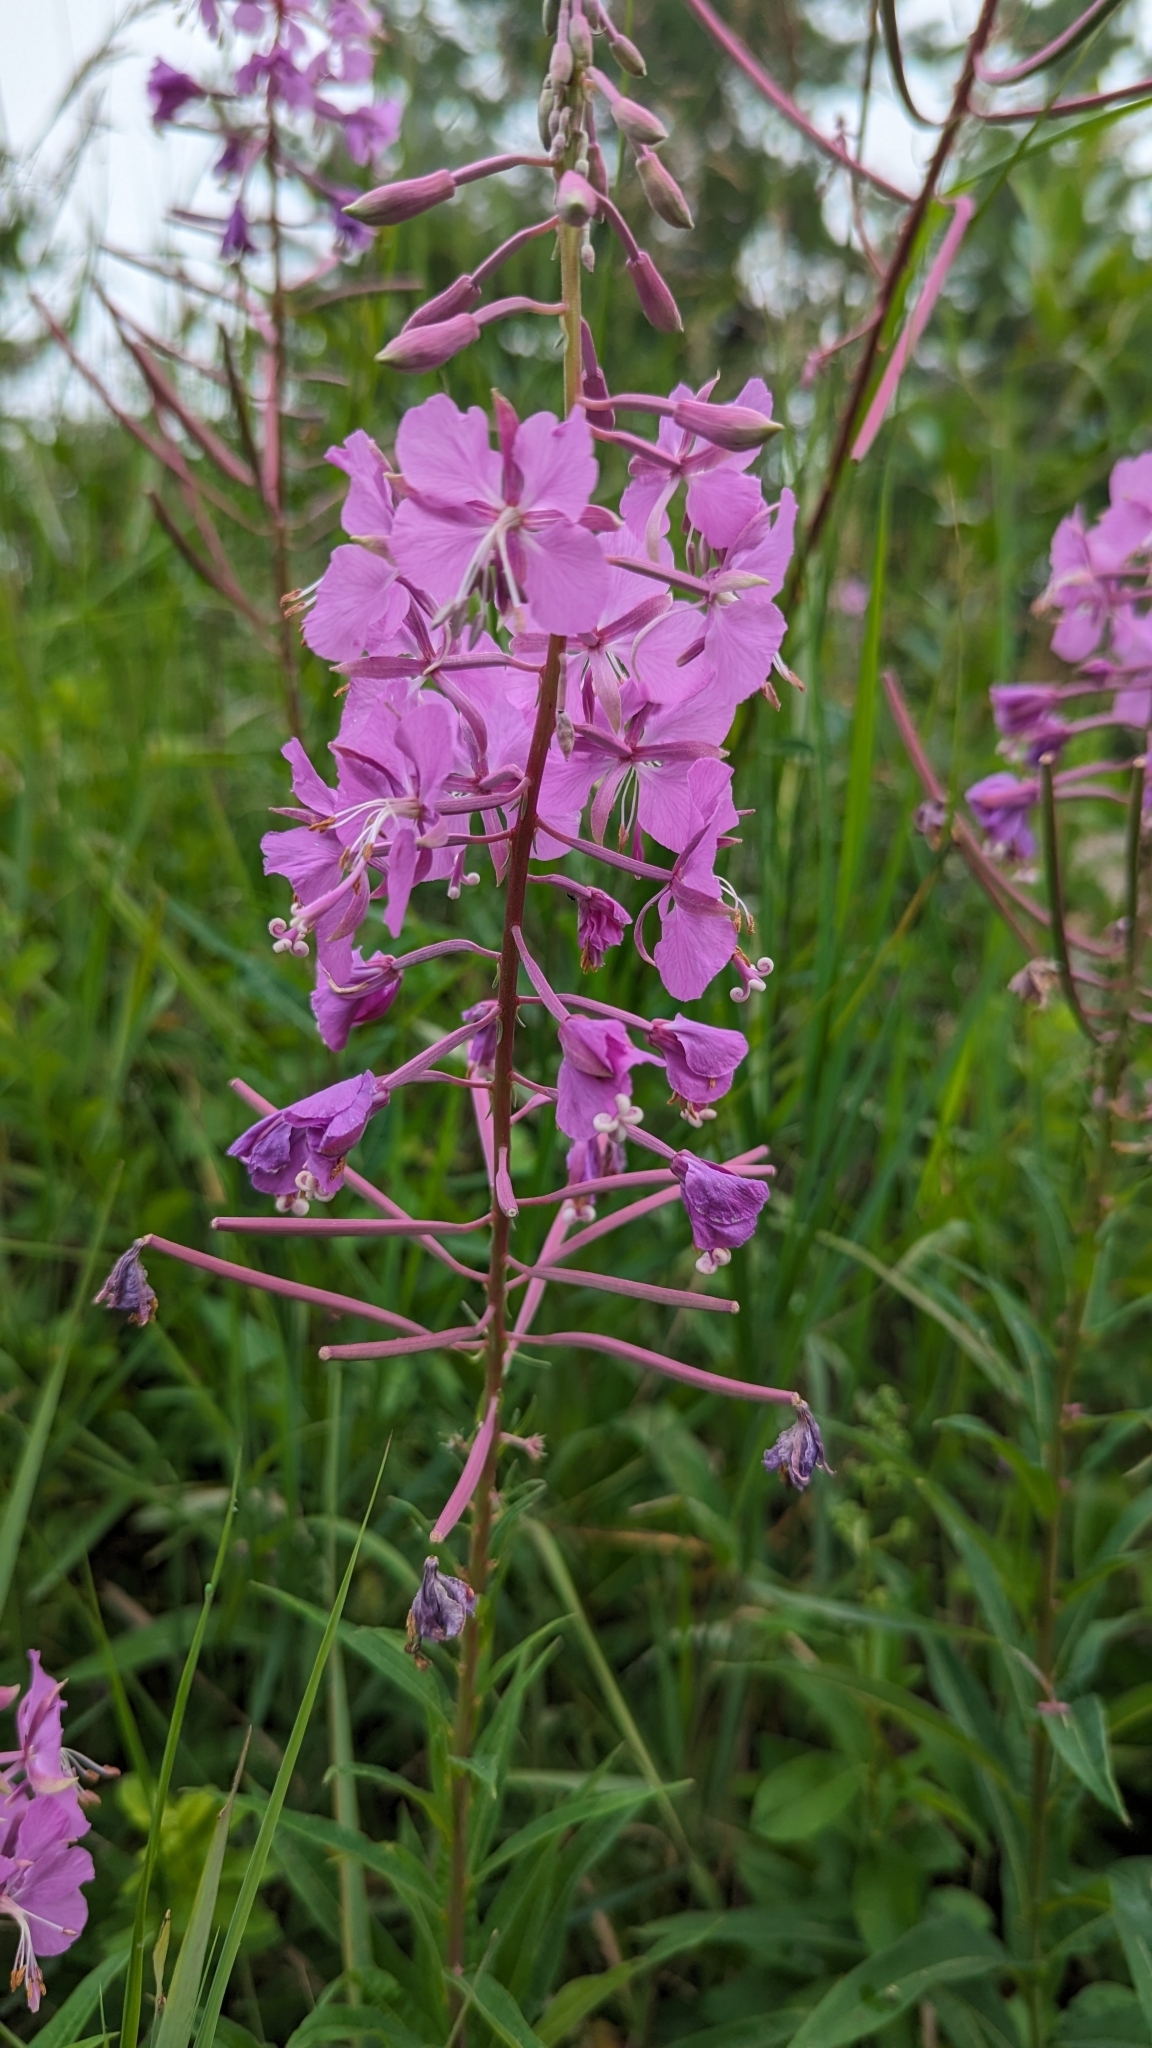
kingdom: Plantae
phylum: Tracheophyta
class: Magnoliopsida
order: Myrtales
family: Onagraceae
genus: Chamaenerion
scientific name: Chamaenerion angustifolium
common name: Fireweed
